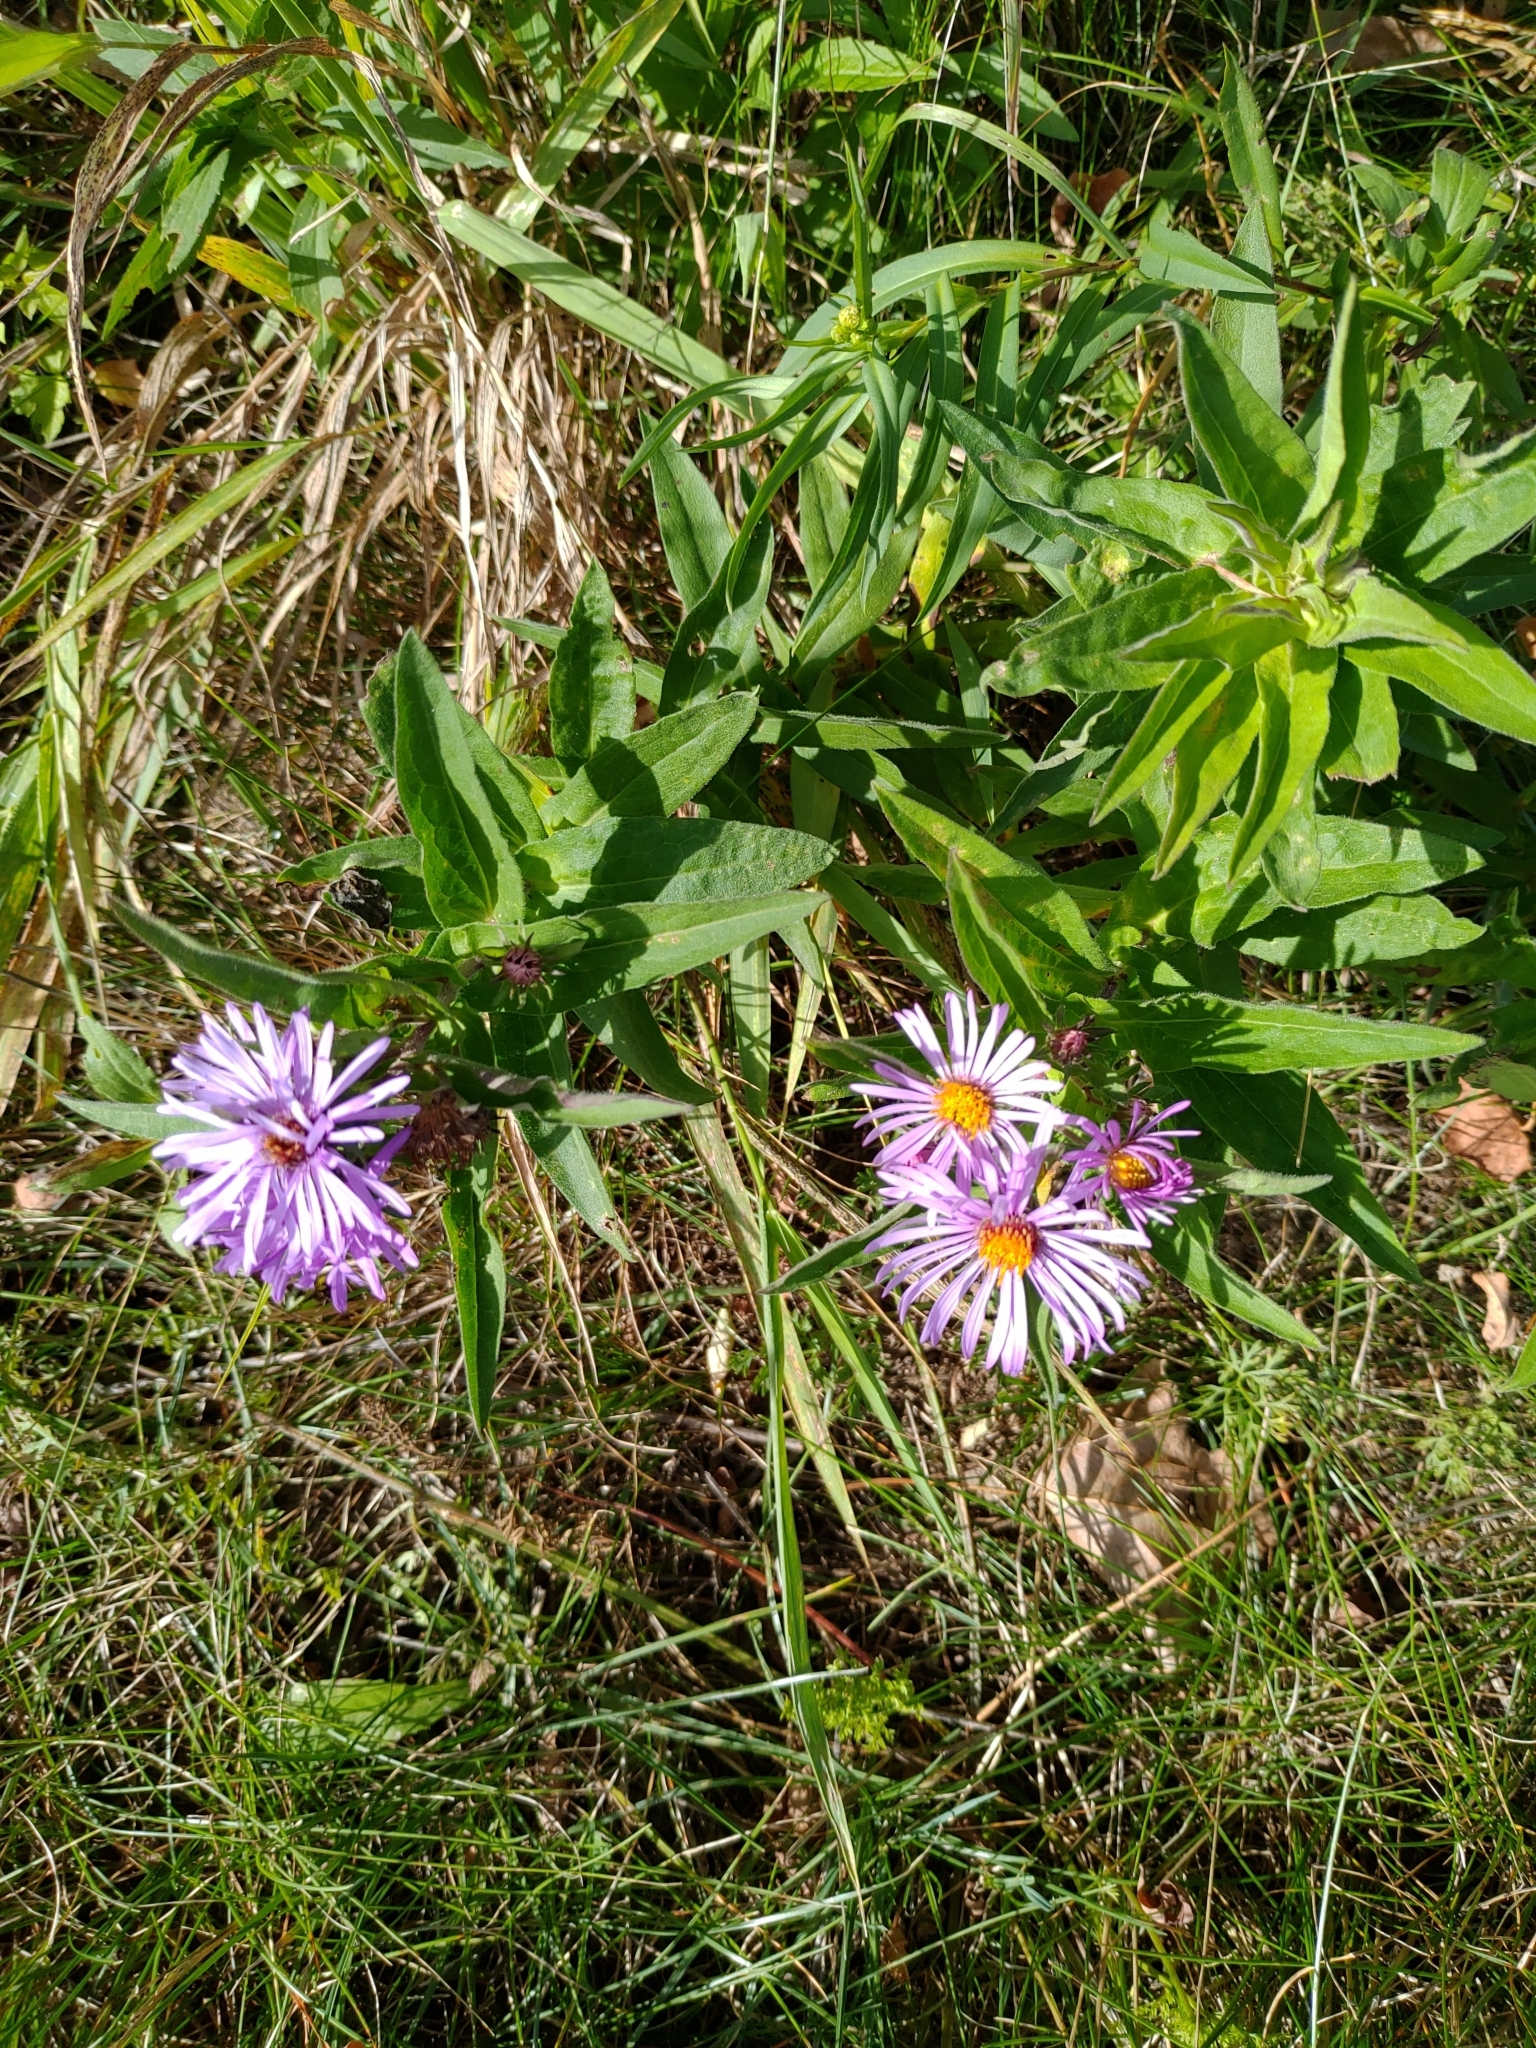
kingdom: Plantae
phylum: Tracheophyta
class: Magnoliopsida
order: Asterales
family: Asteraceae
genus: Symphyotrichum
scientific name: Symphyotrichum novae-angliae
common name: Michaelmas daisy
